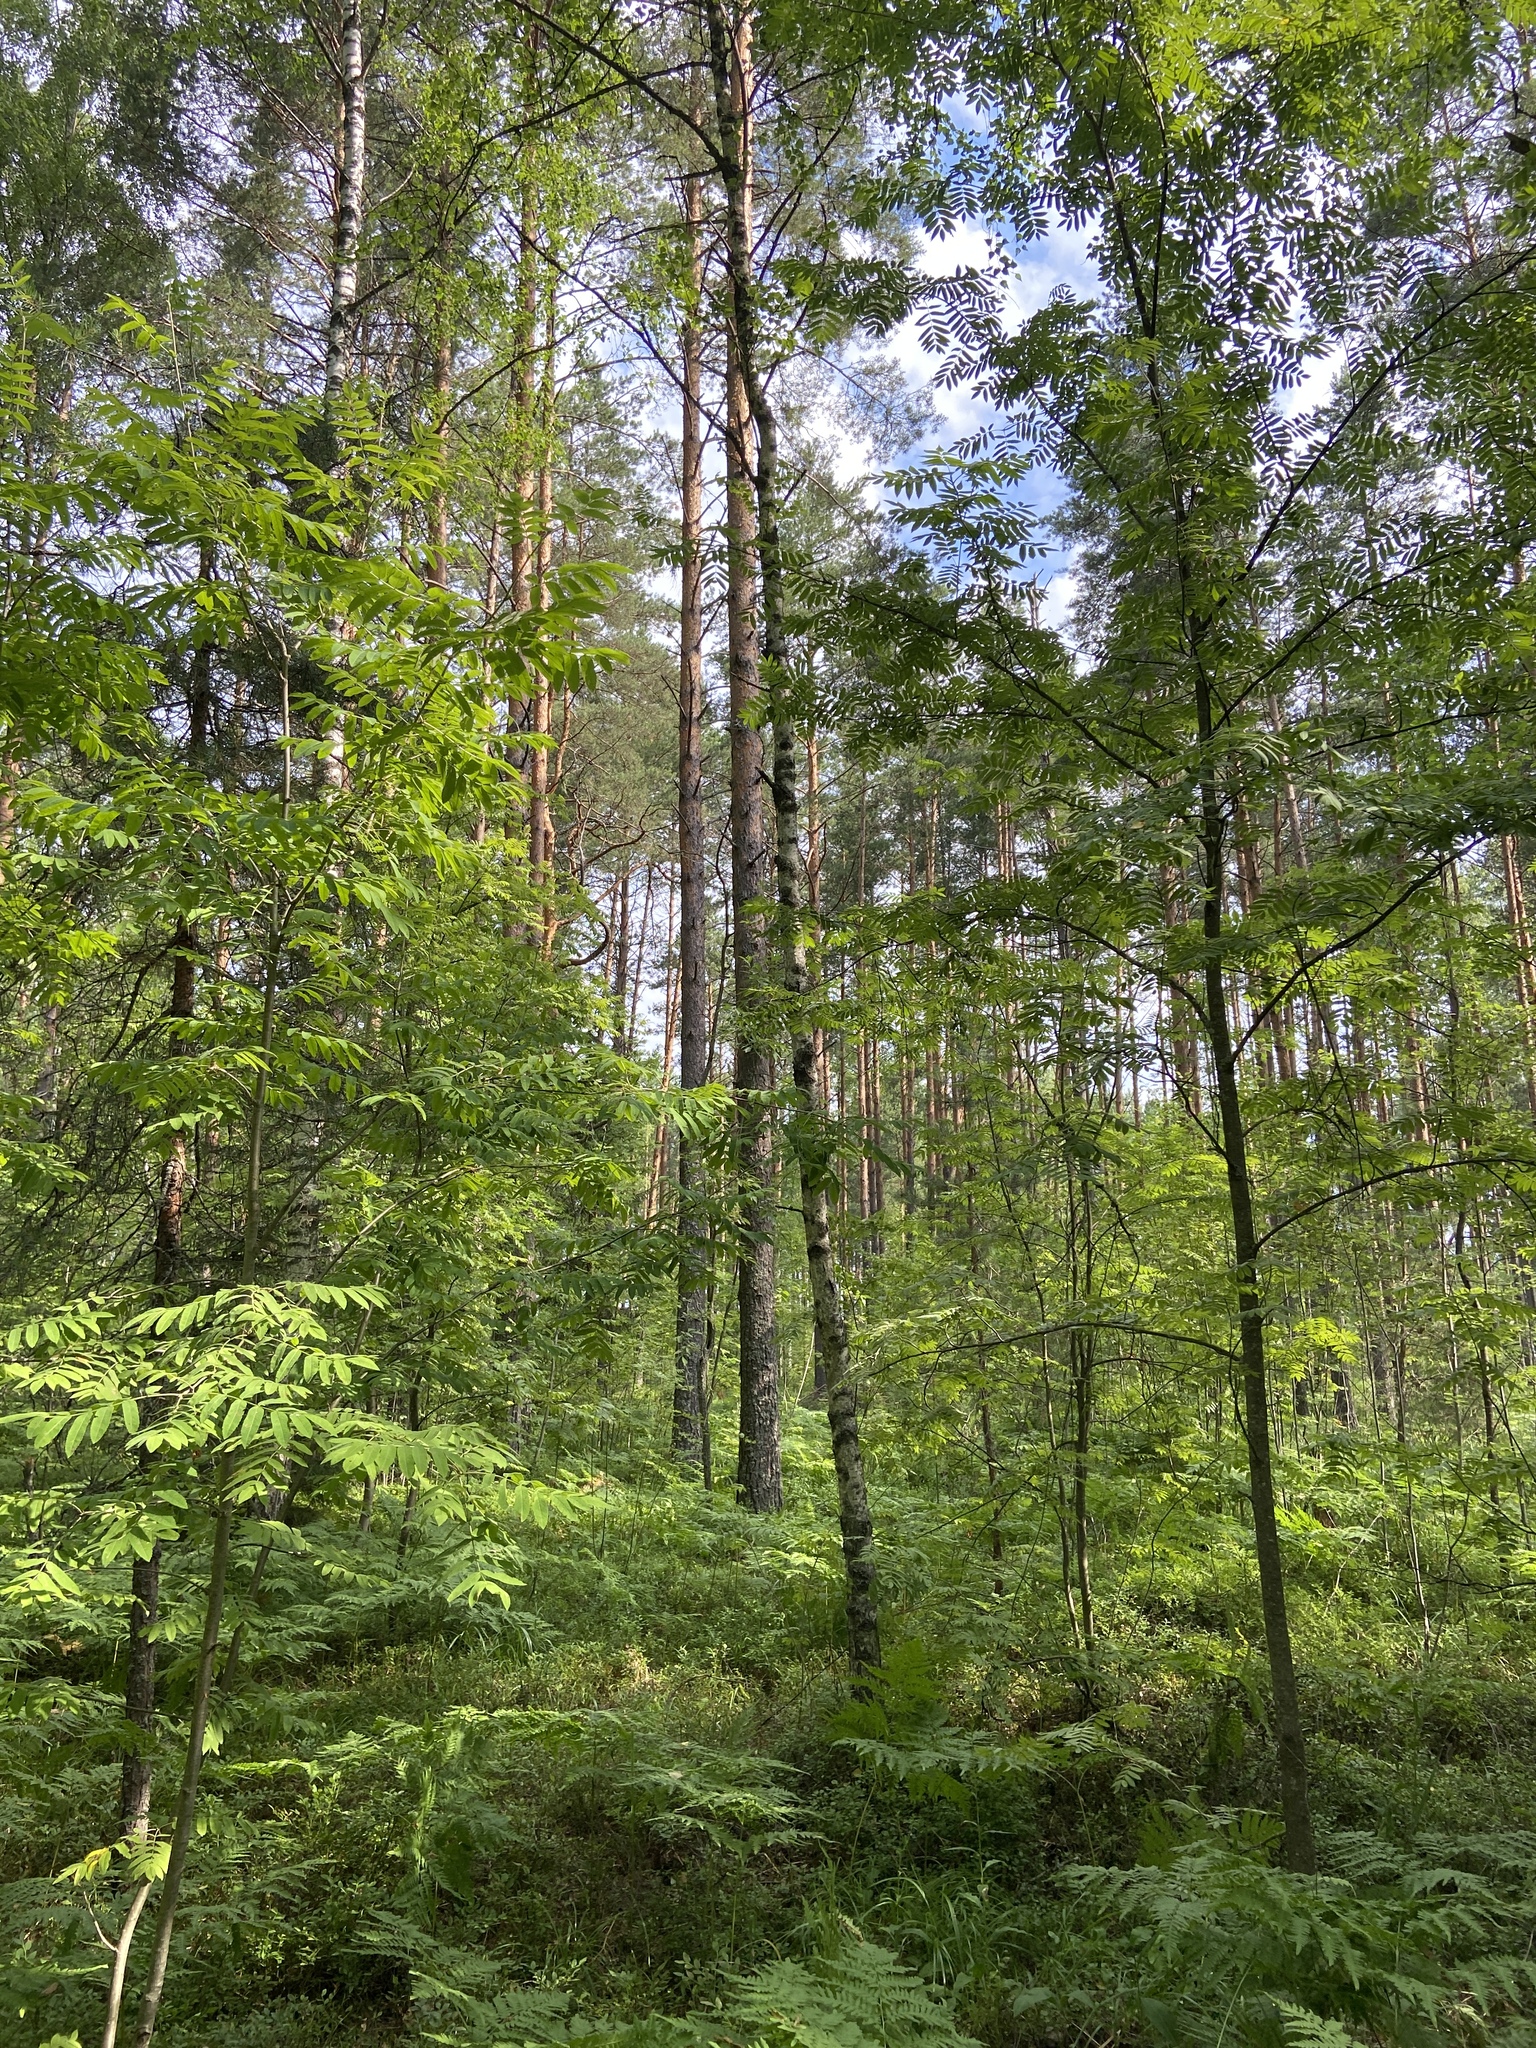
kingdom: Plantae
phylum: Tracheophyta
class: Magnoliopsida
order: Rosales
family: Rosaceae
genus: Sorbus
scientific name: Sorbus aucuparia
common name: Rowan
